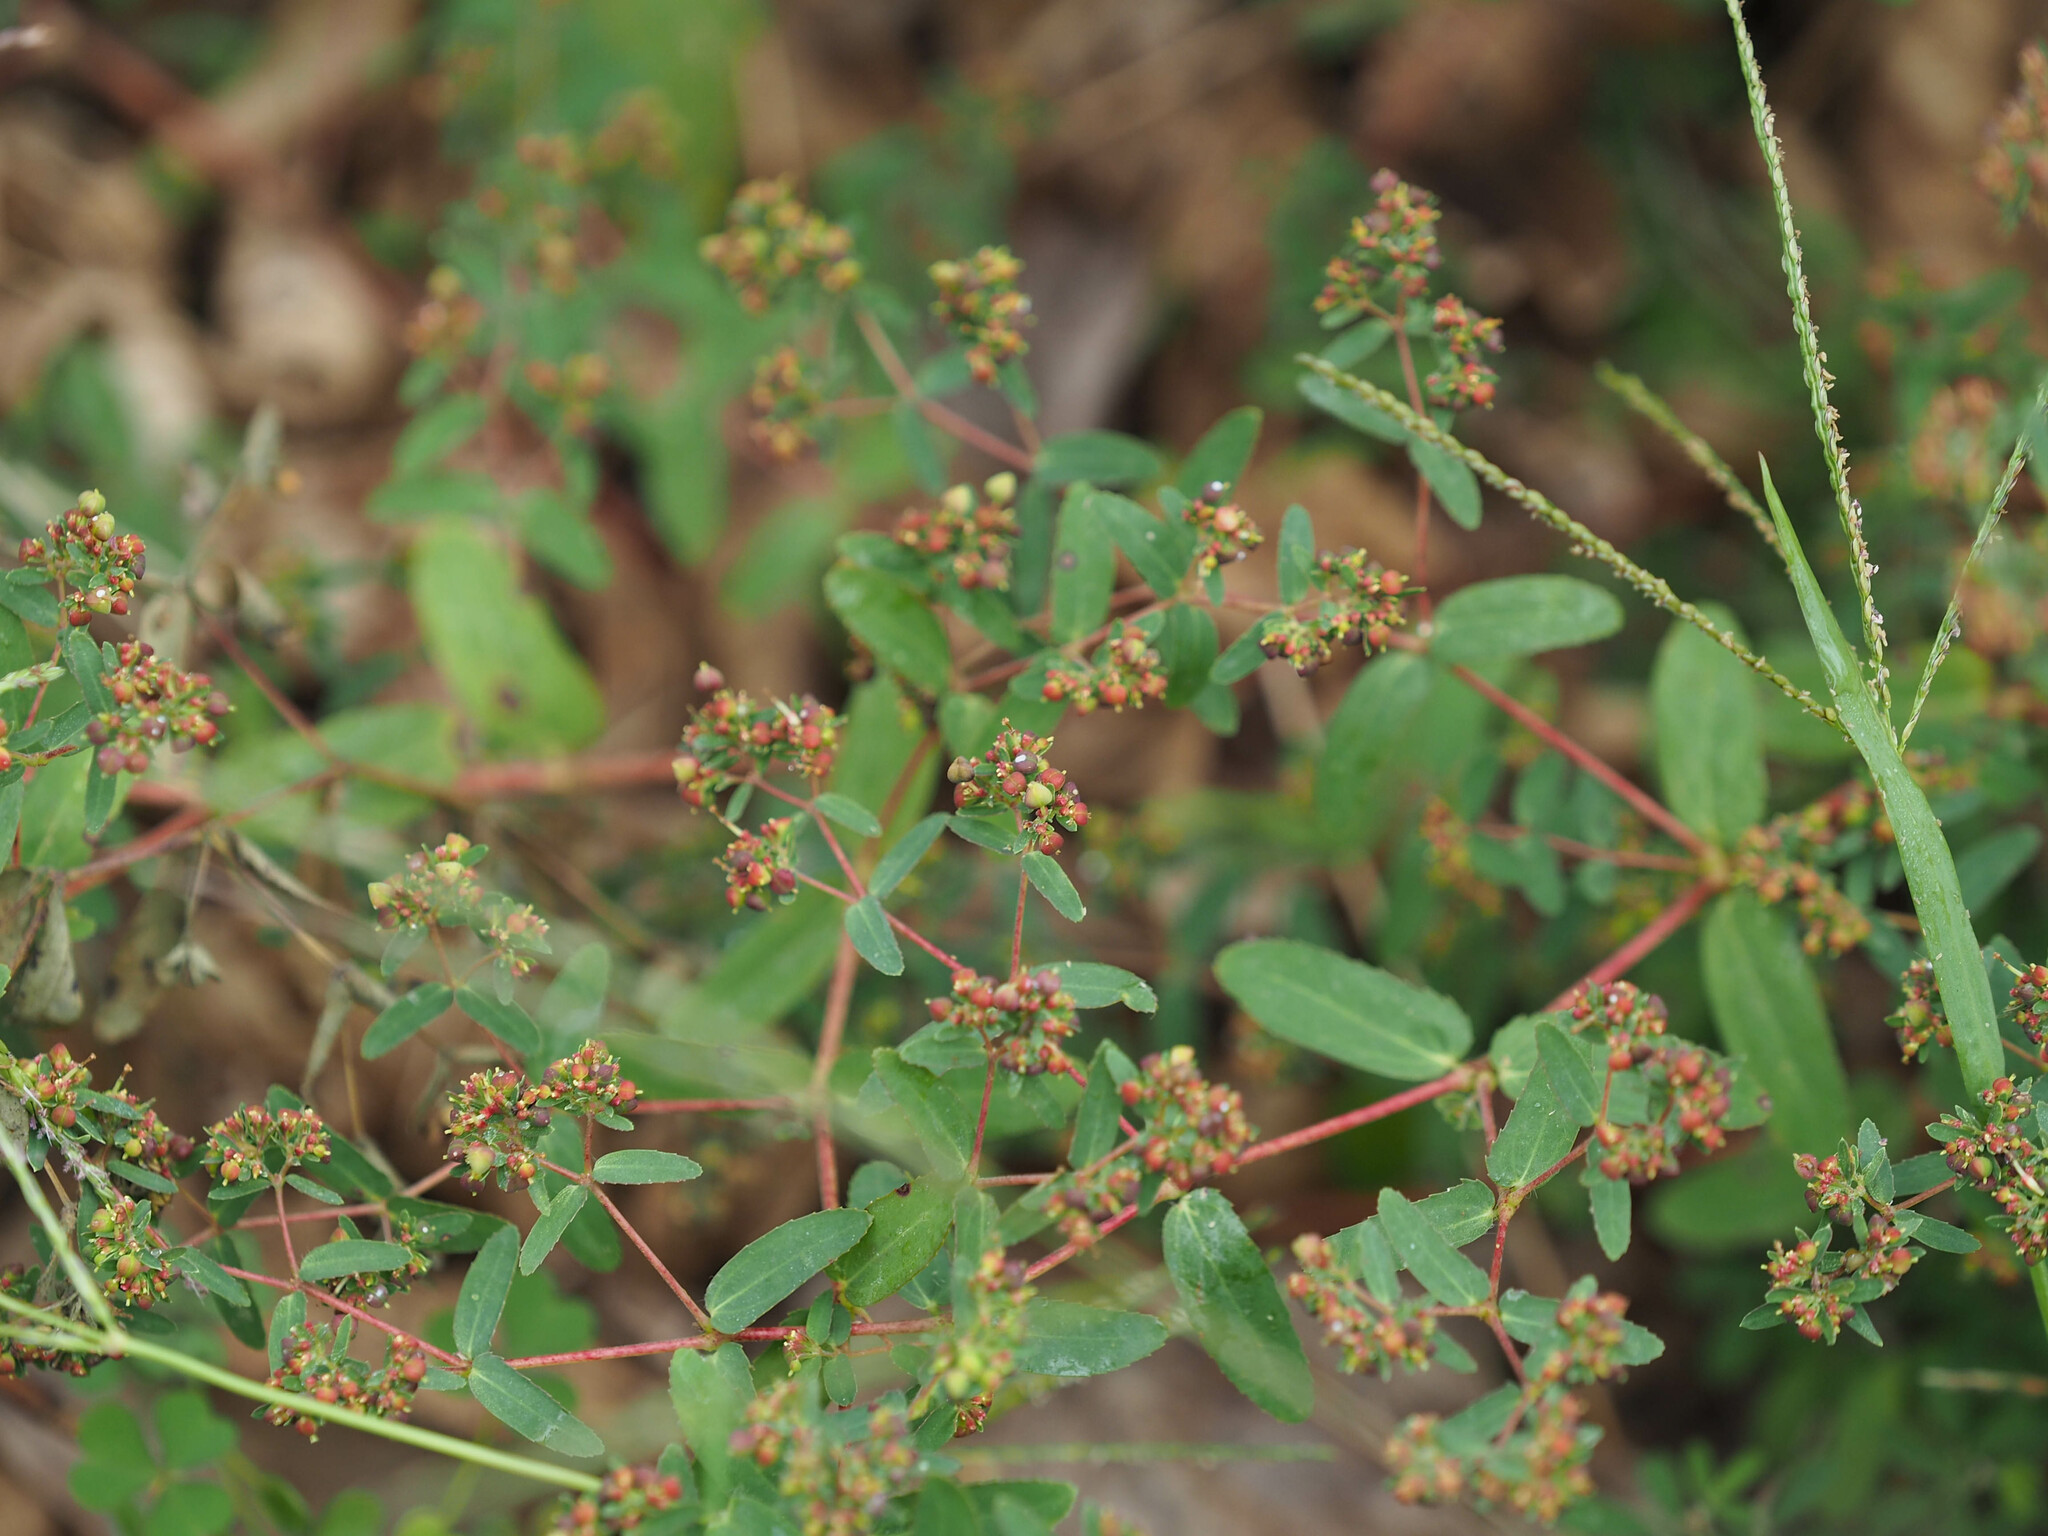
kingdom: Plantae
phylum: Tracheophyta
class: Magnoliopsida
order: Malpighiales
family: Euphorbiaceae
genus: Euphorbia
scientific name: Euphorbia nutans
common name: Eyebane
